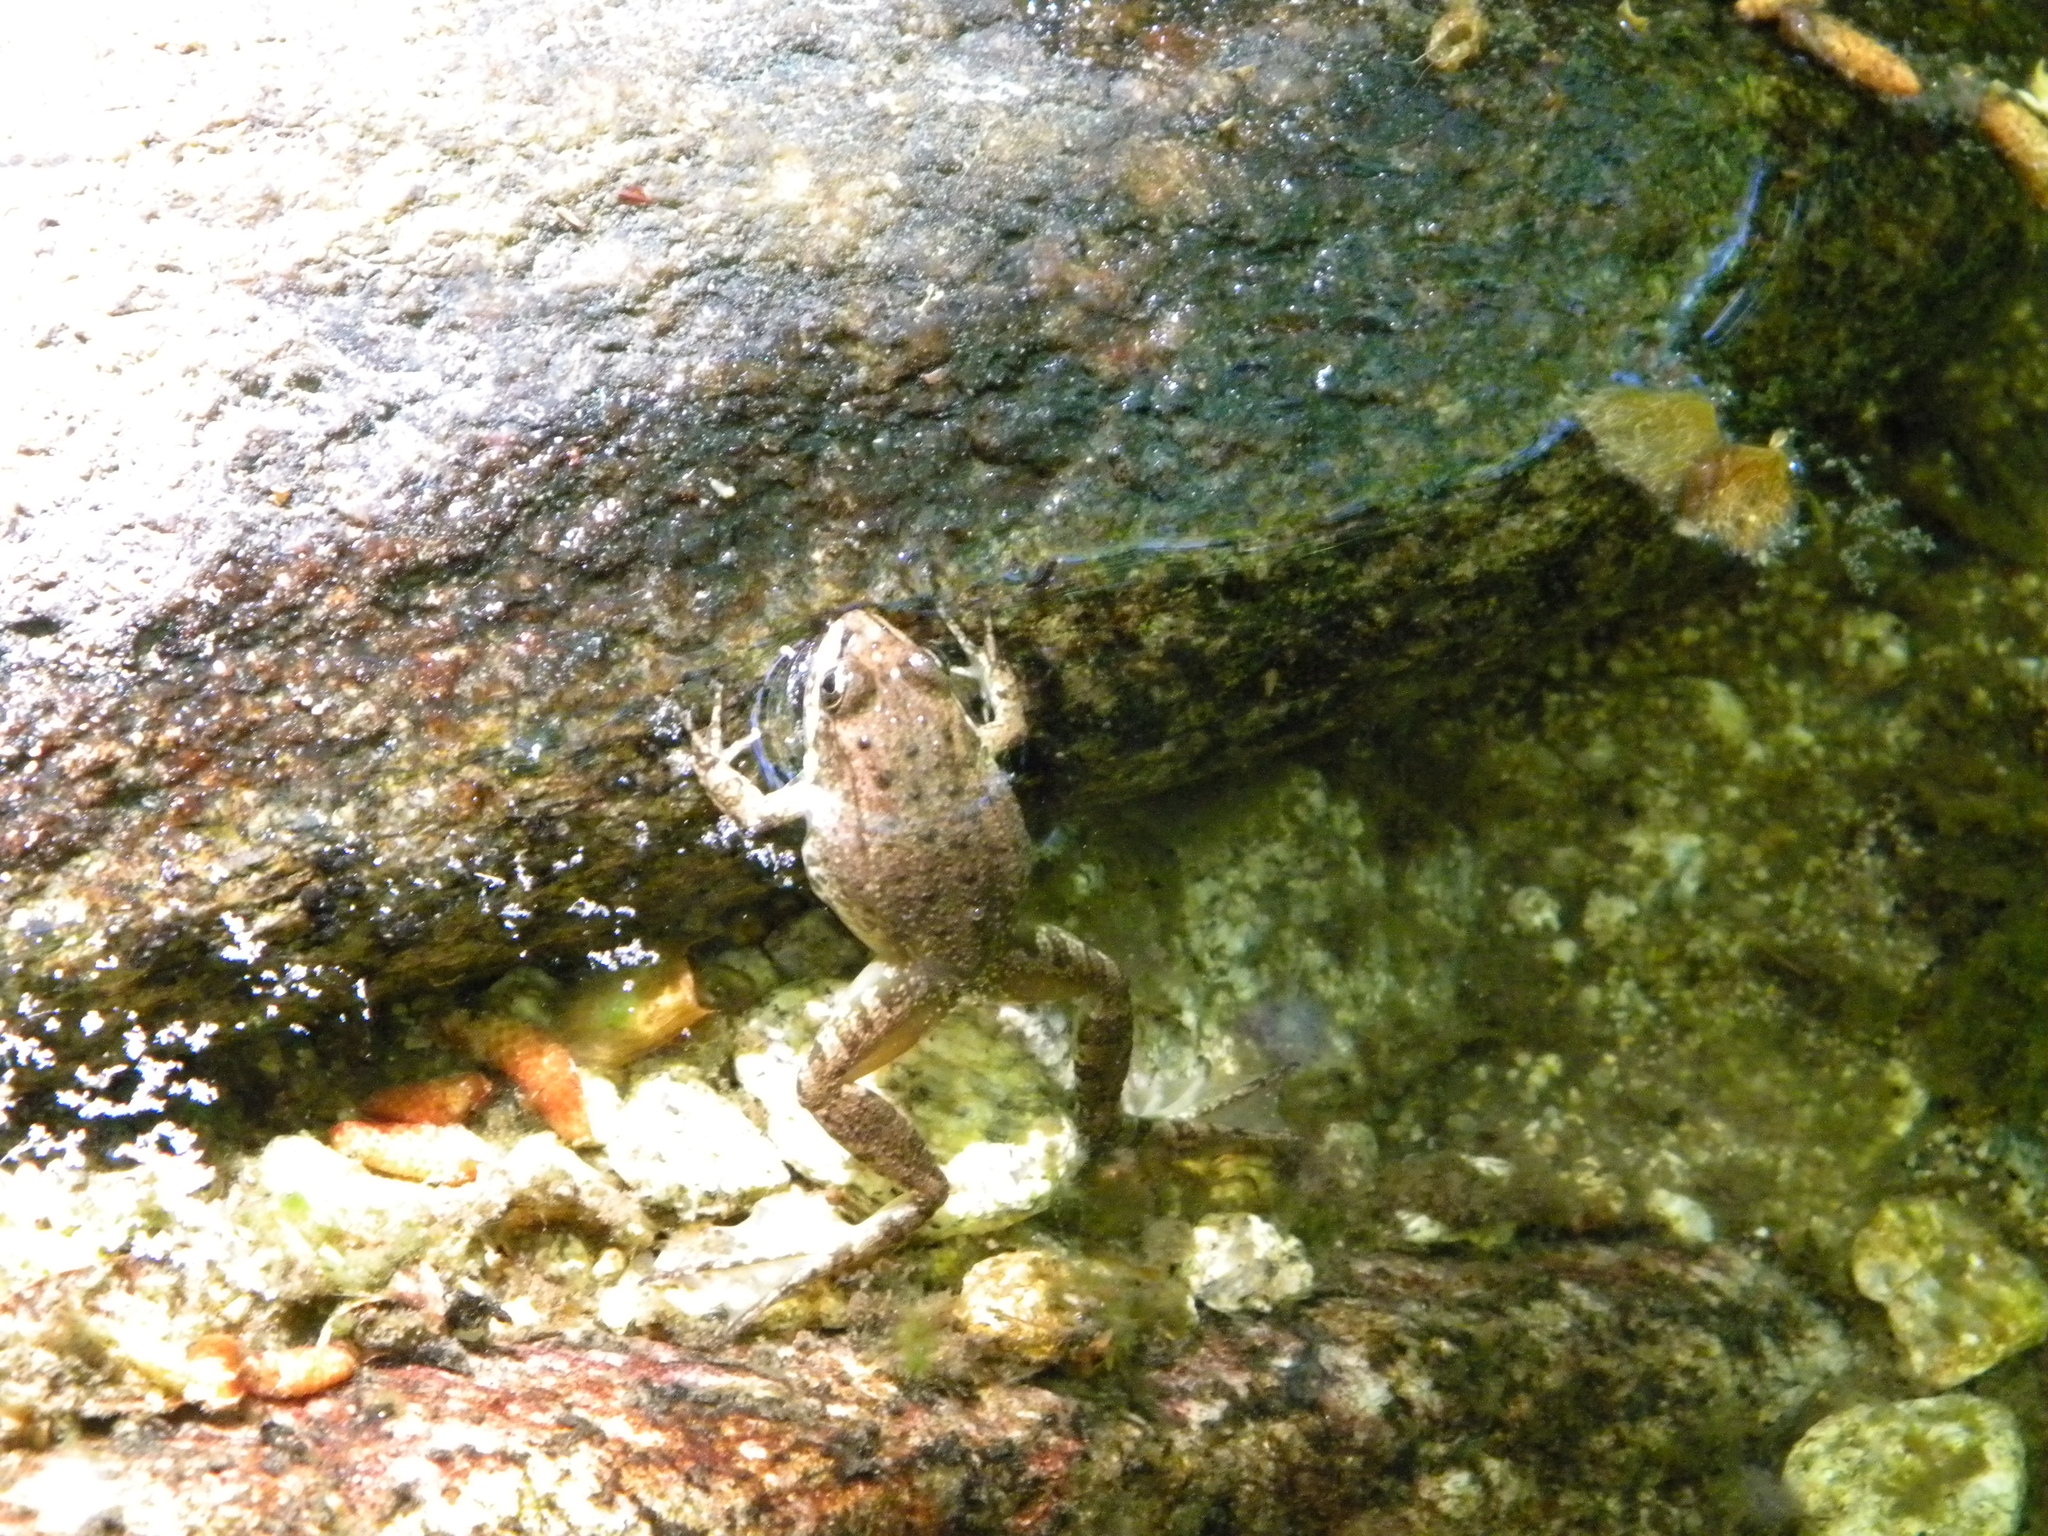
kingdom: Animalia
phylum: Chordata
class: Amphibia
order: Anura
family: Ranidae
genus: Pelophylax
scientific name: Pelophylax ridibundus
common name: Marsh frog
